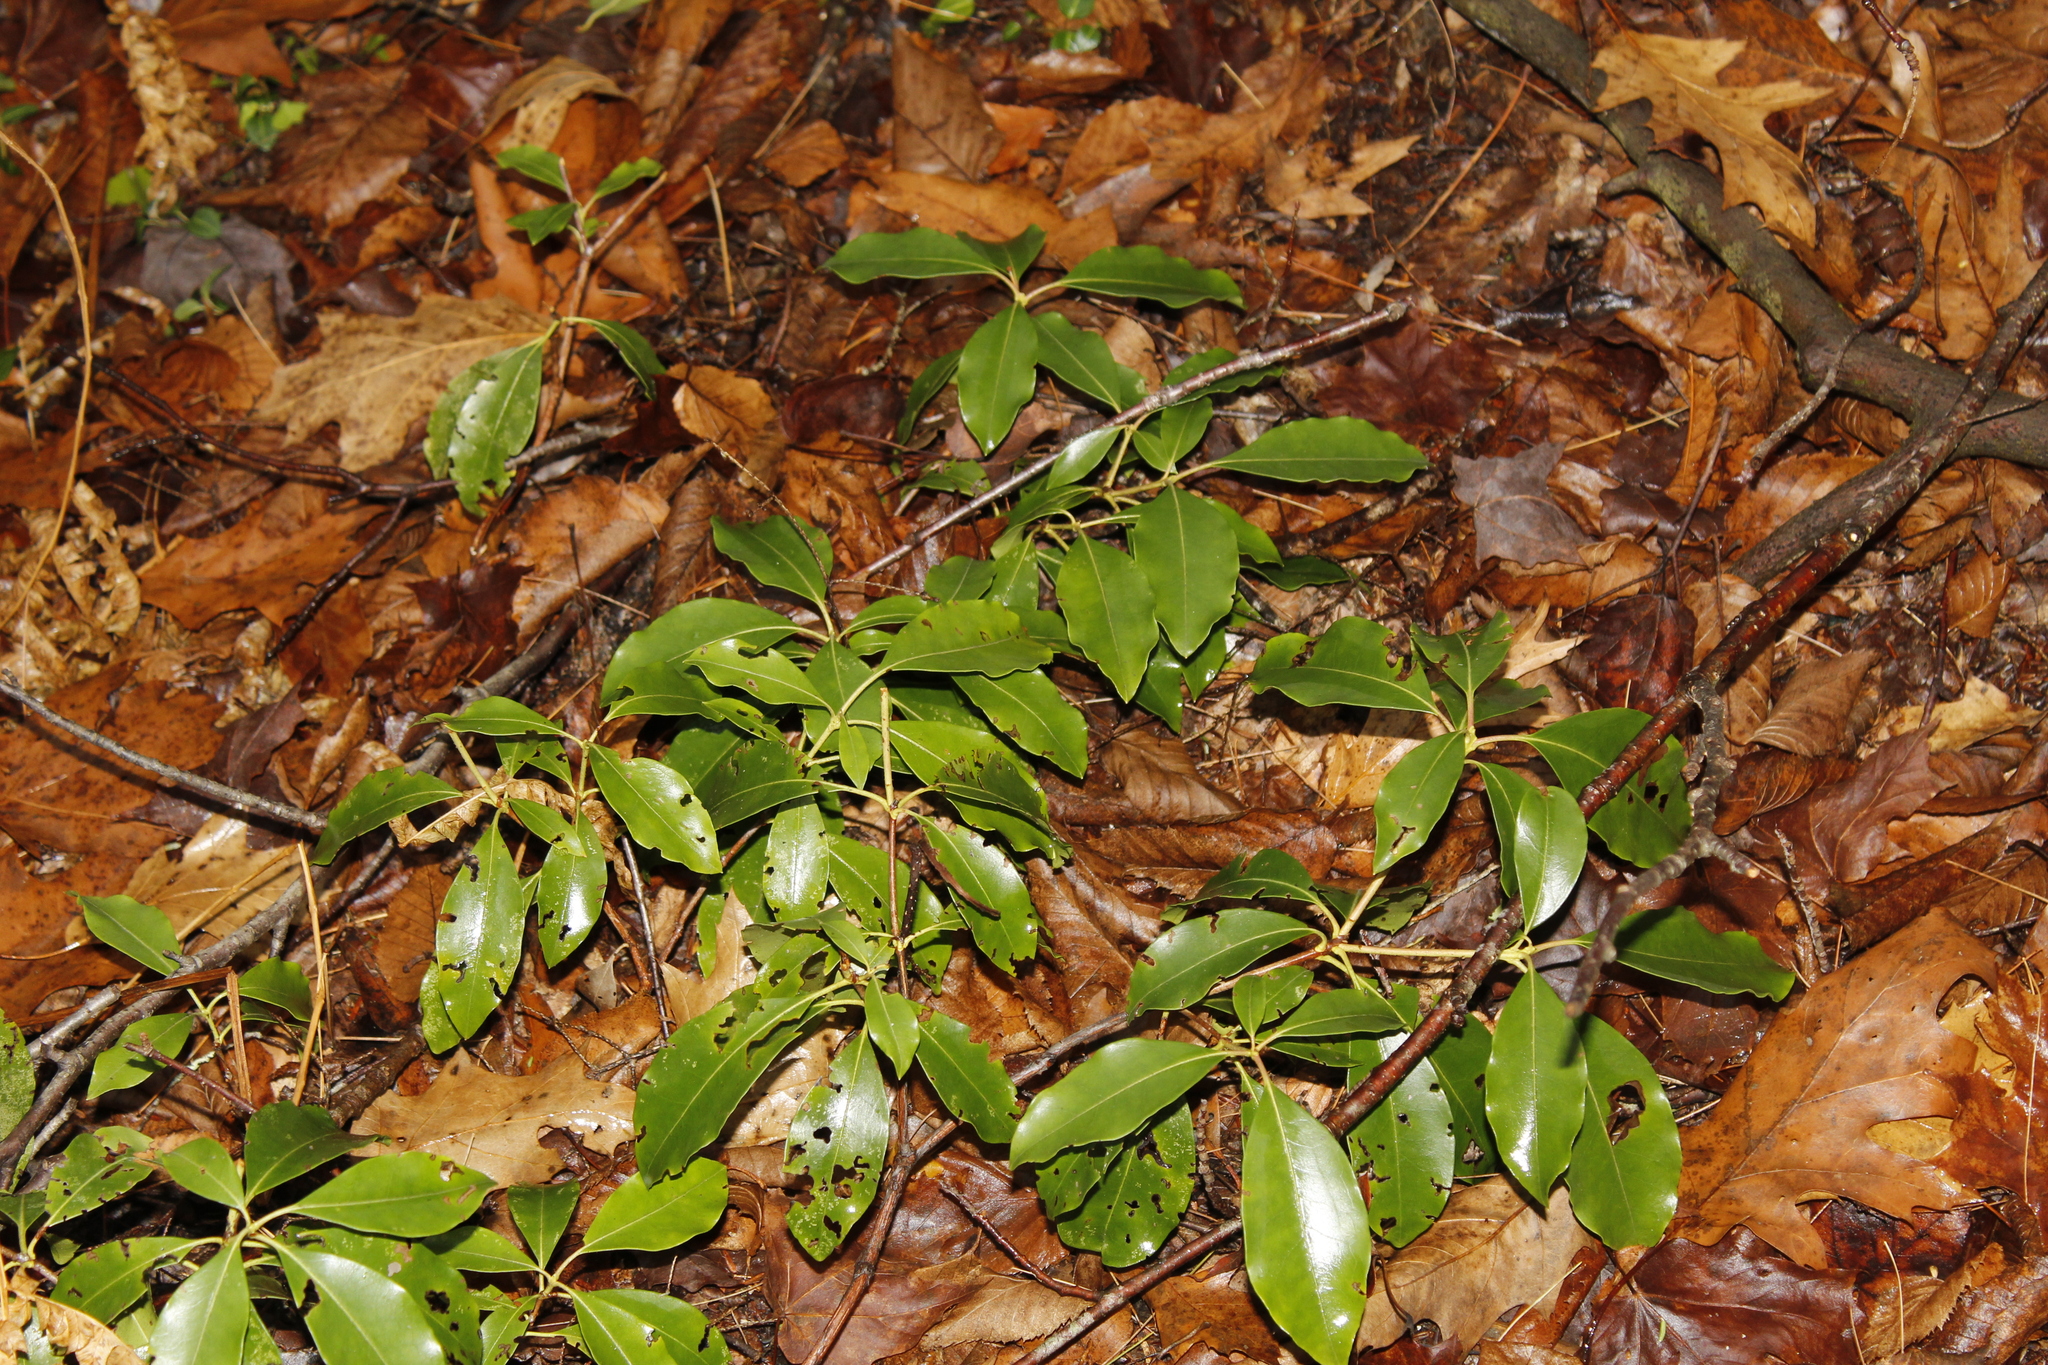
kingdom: Plantae
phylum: Tracheophyta
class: Magnoliopsida
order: Ericales
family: Ericaceae
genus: Kalmia
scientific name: Kalmia latifolia
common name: Mountain-laurel
